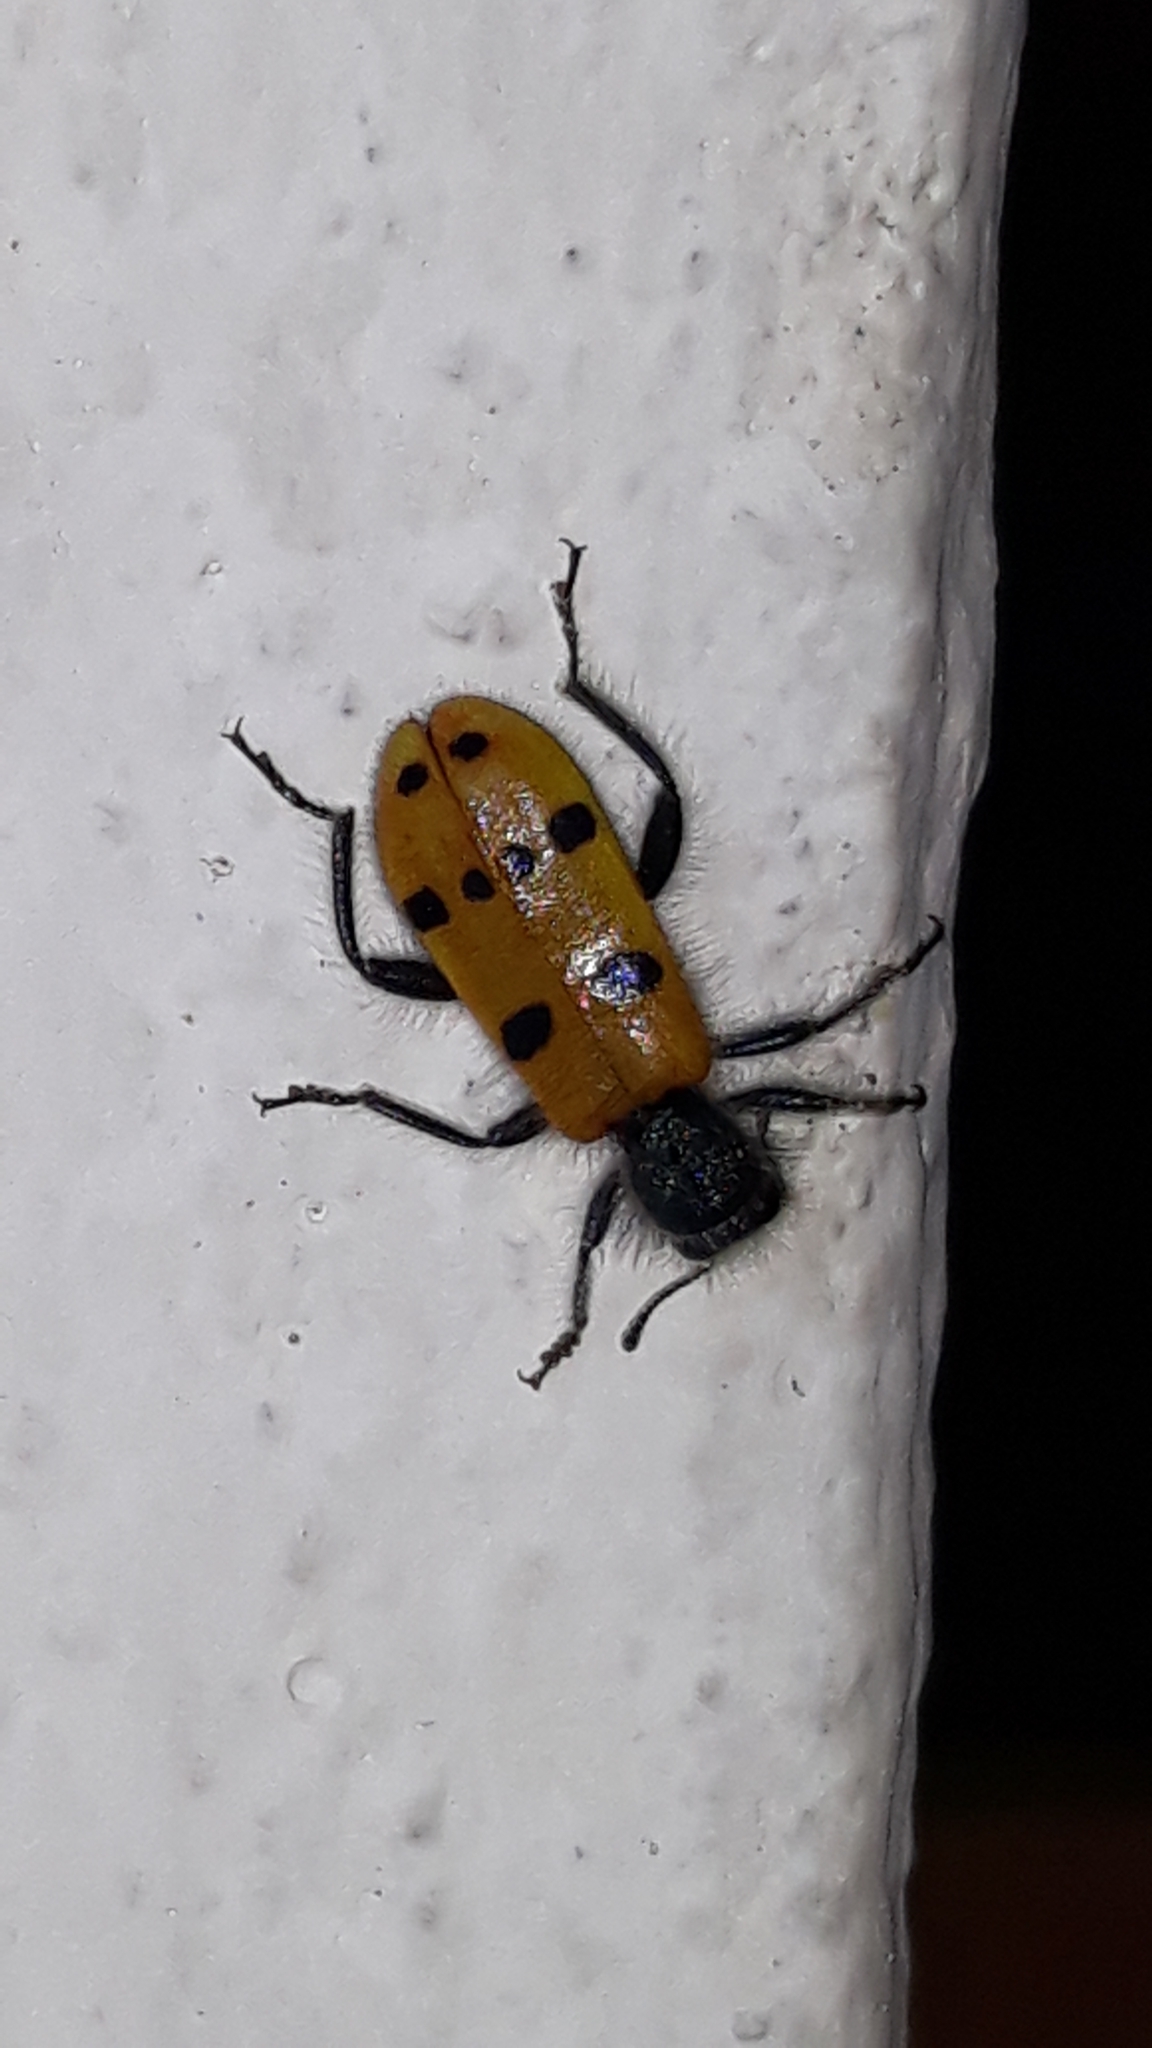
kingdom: Animalia
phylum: Arthropoda
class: Insecta
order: Coleoptera
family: Cleridae
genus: Trichodes
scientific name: Trichodes octopunctatus
